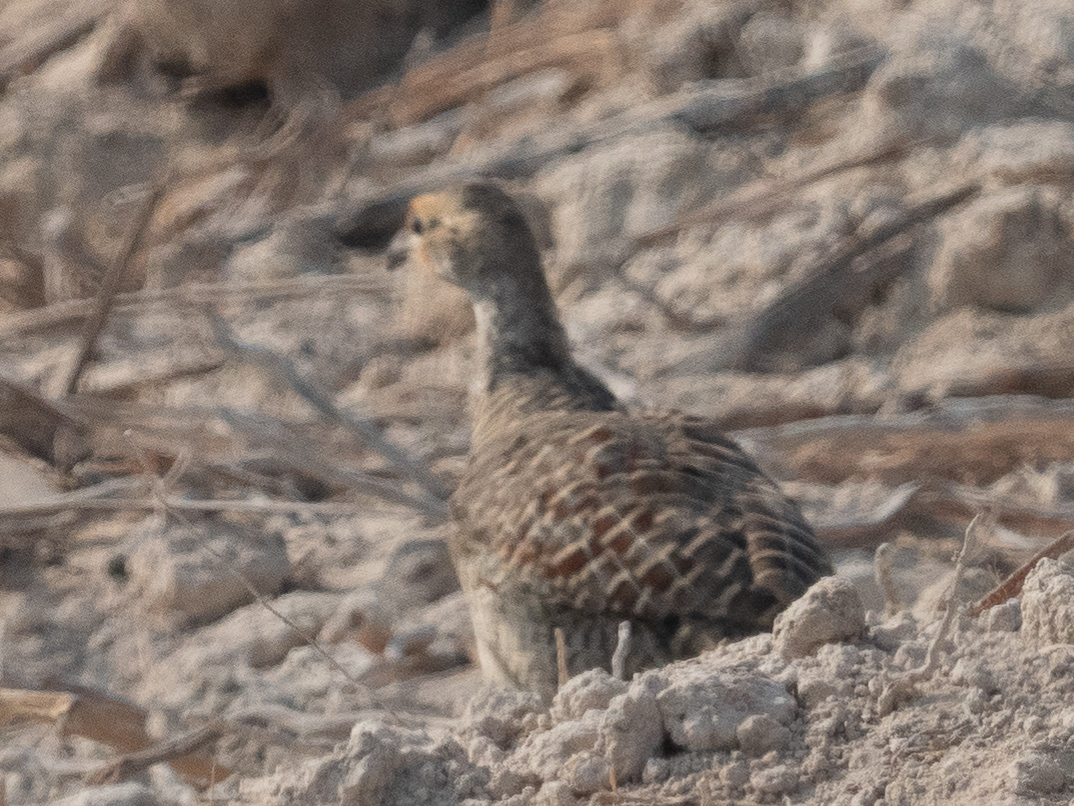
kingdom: Animalia
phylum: Chordata
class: Aves
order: Galliformes
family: Phasianidae
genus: Ortygornis
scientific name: Ortygornis pondicerianus
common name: Grey francolin
